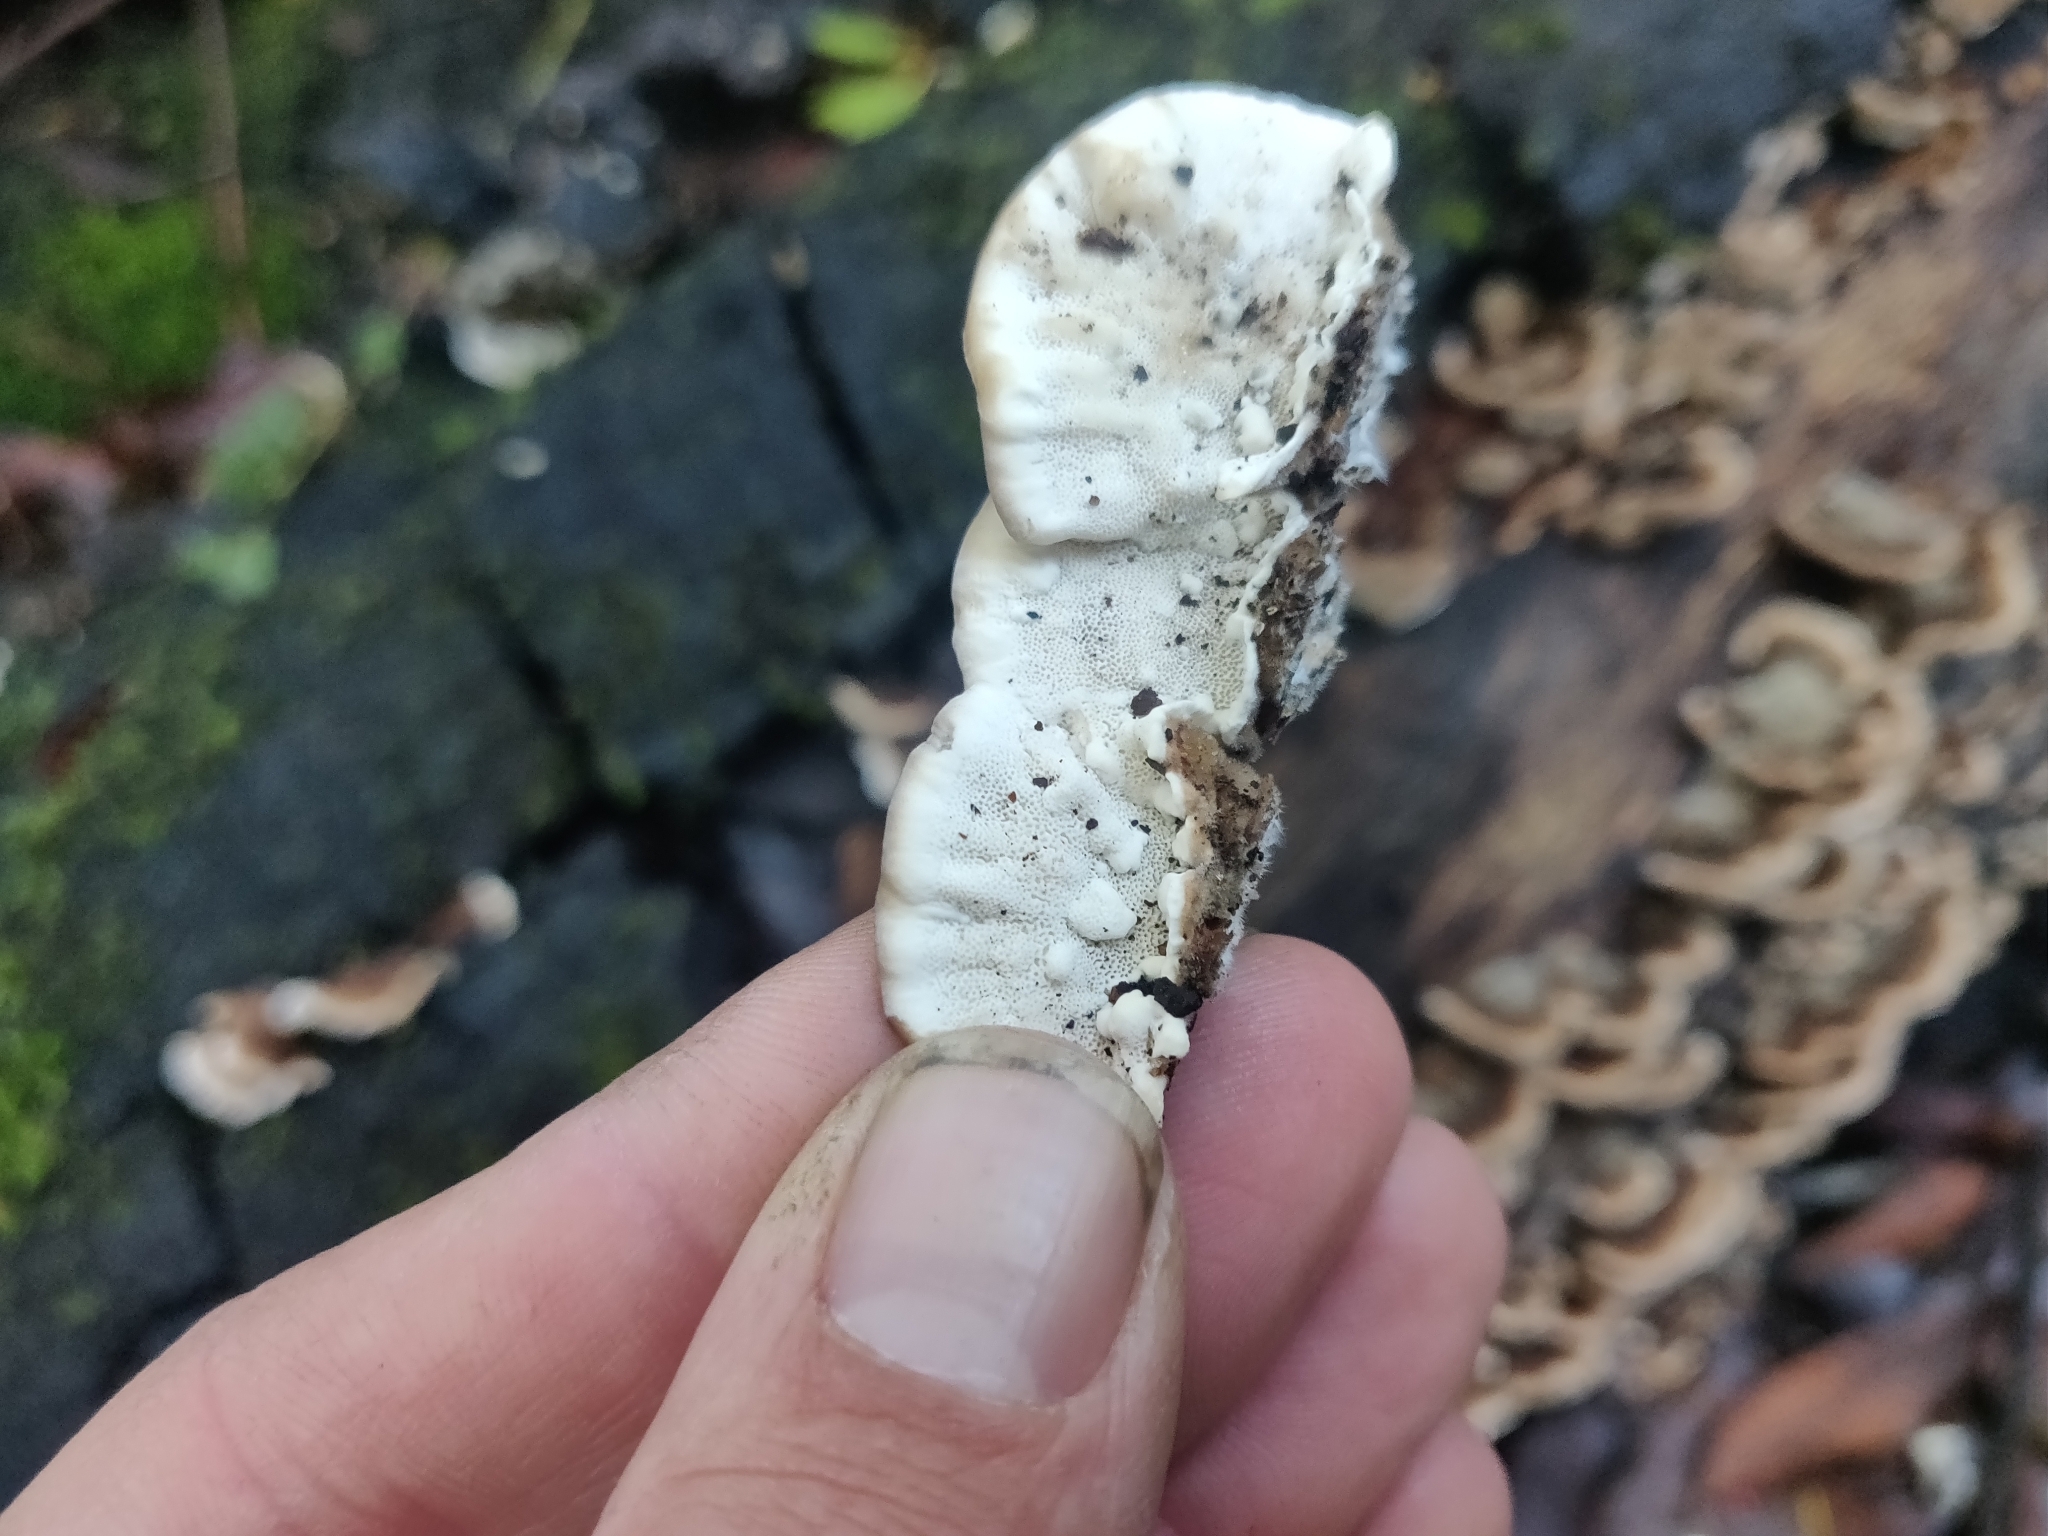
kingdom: Fungi
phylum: Basidiomycota
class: Agaricomycetes
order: Polyporales
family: Polyporaceae
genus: Trametes
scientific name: Trametes versicolor
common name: Turkeytail
